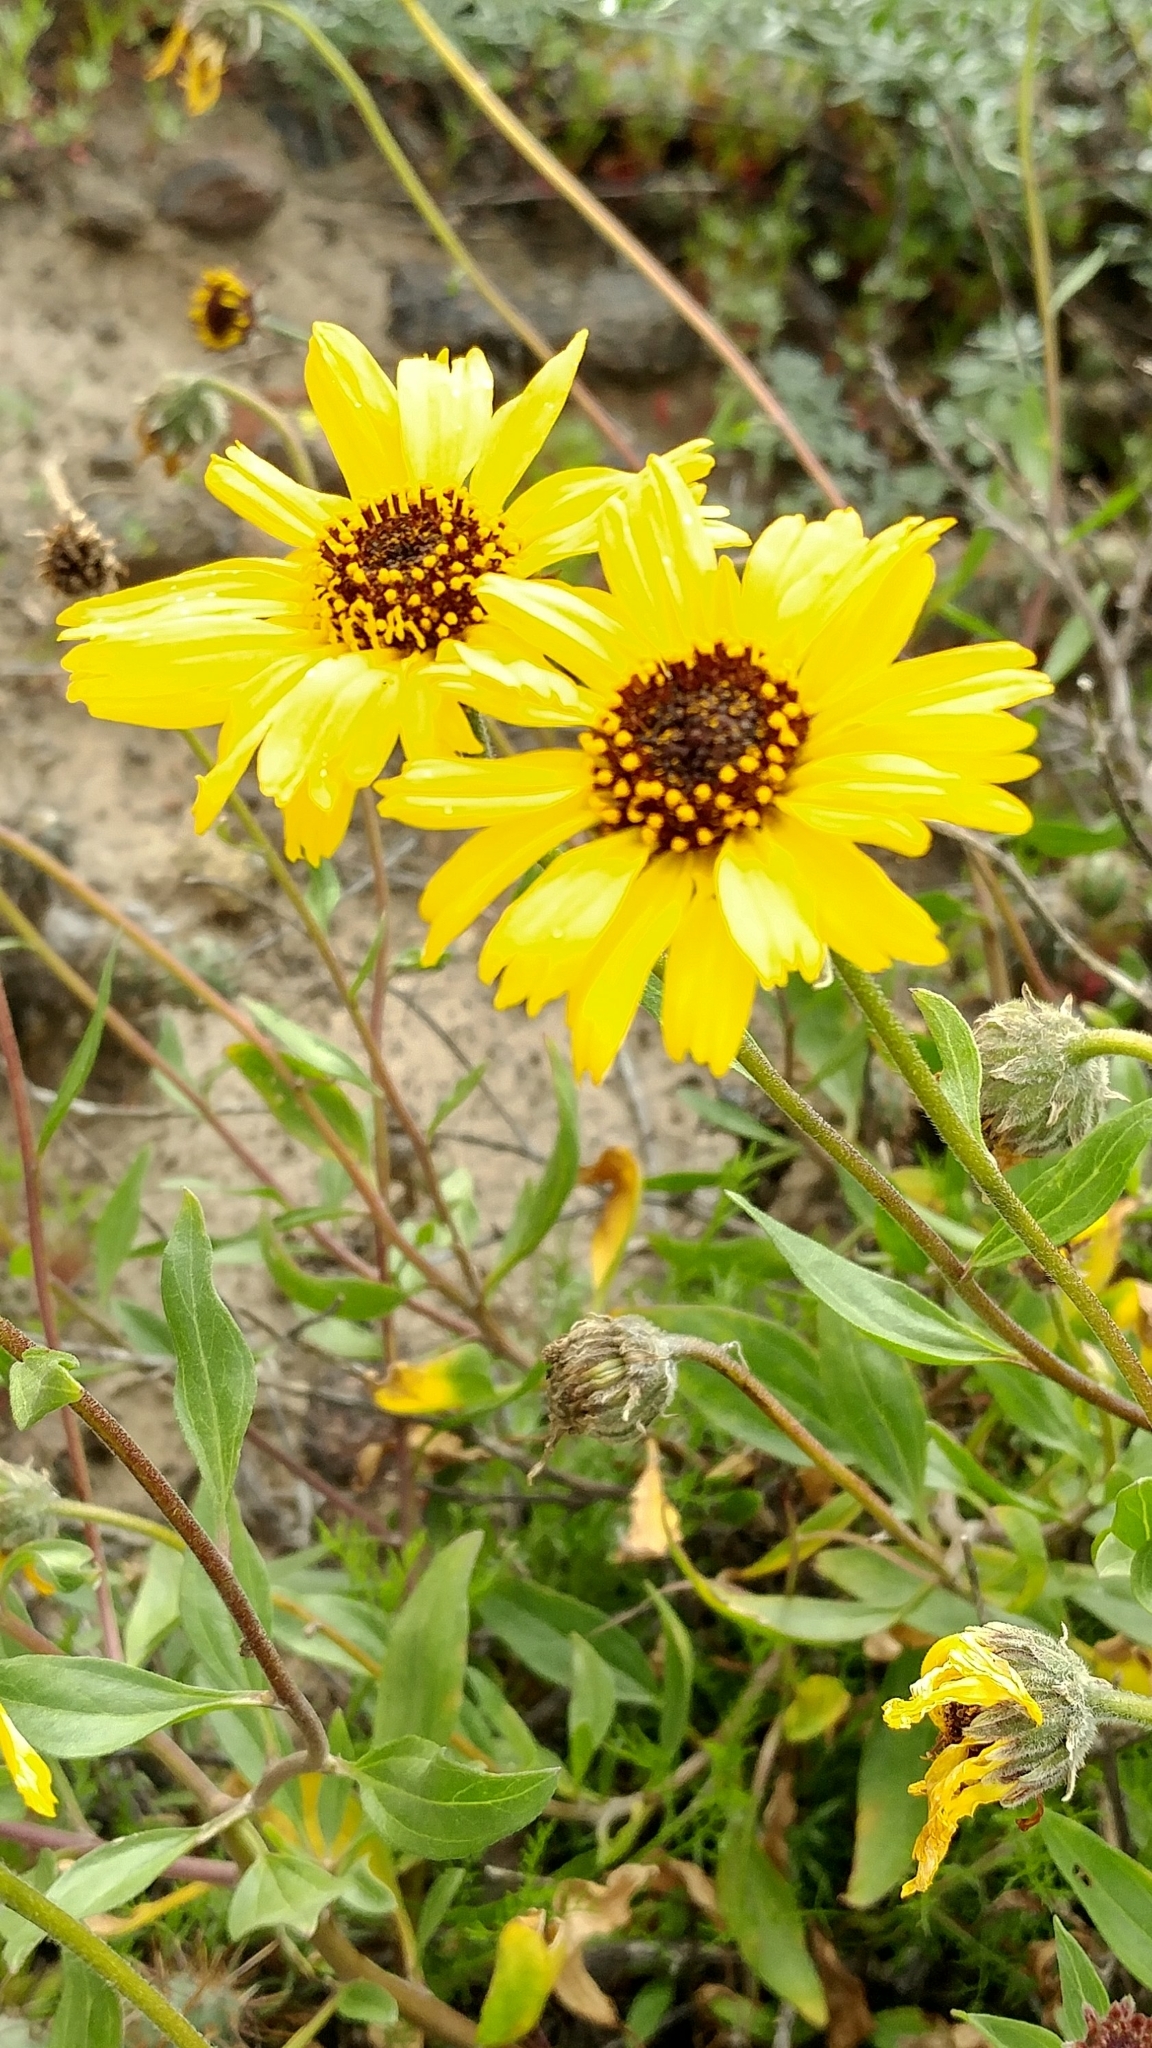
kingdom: Plantae
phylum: Tracheophyta
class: Magnoliopsida
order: Asterales
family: Asteraceae
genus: Encelia
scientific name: Encelia californica
